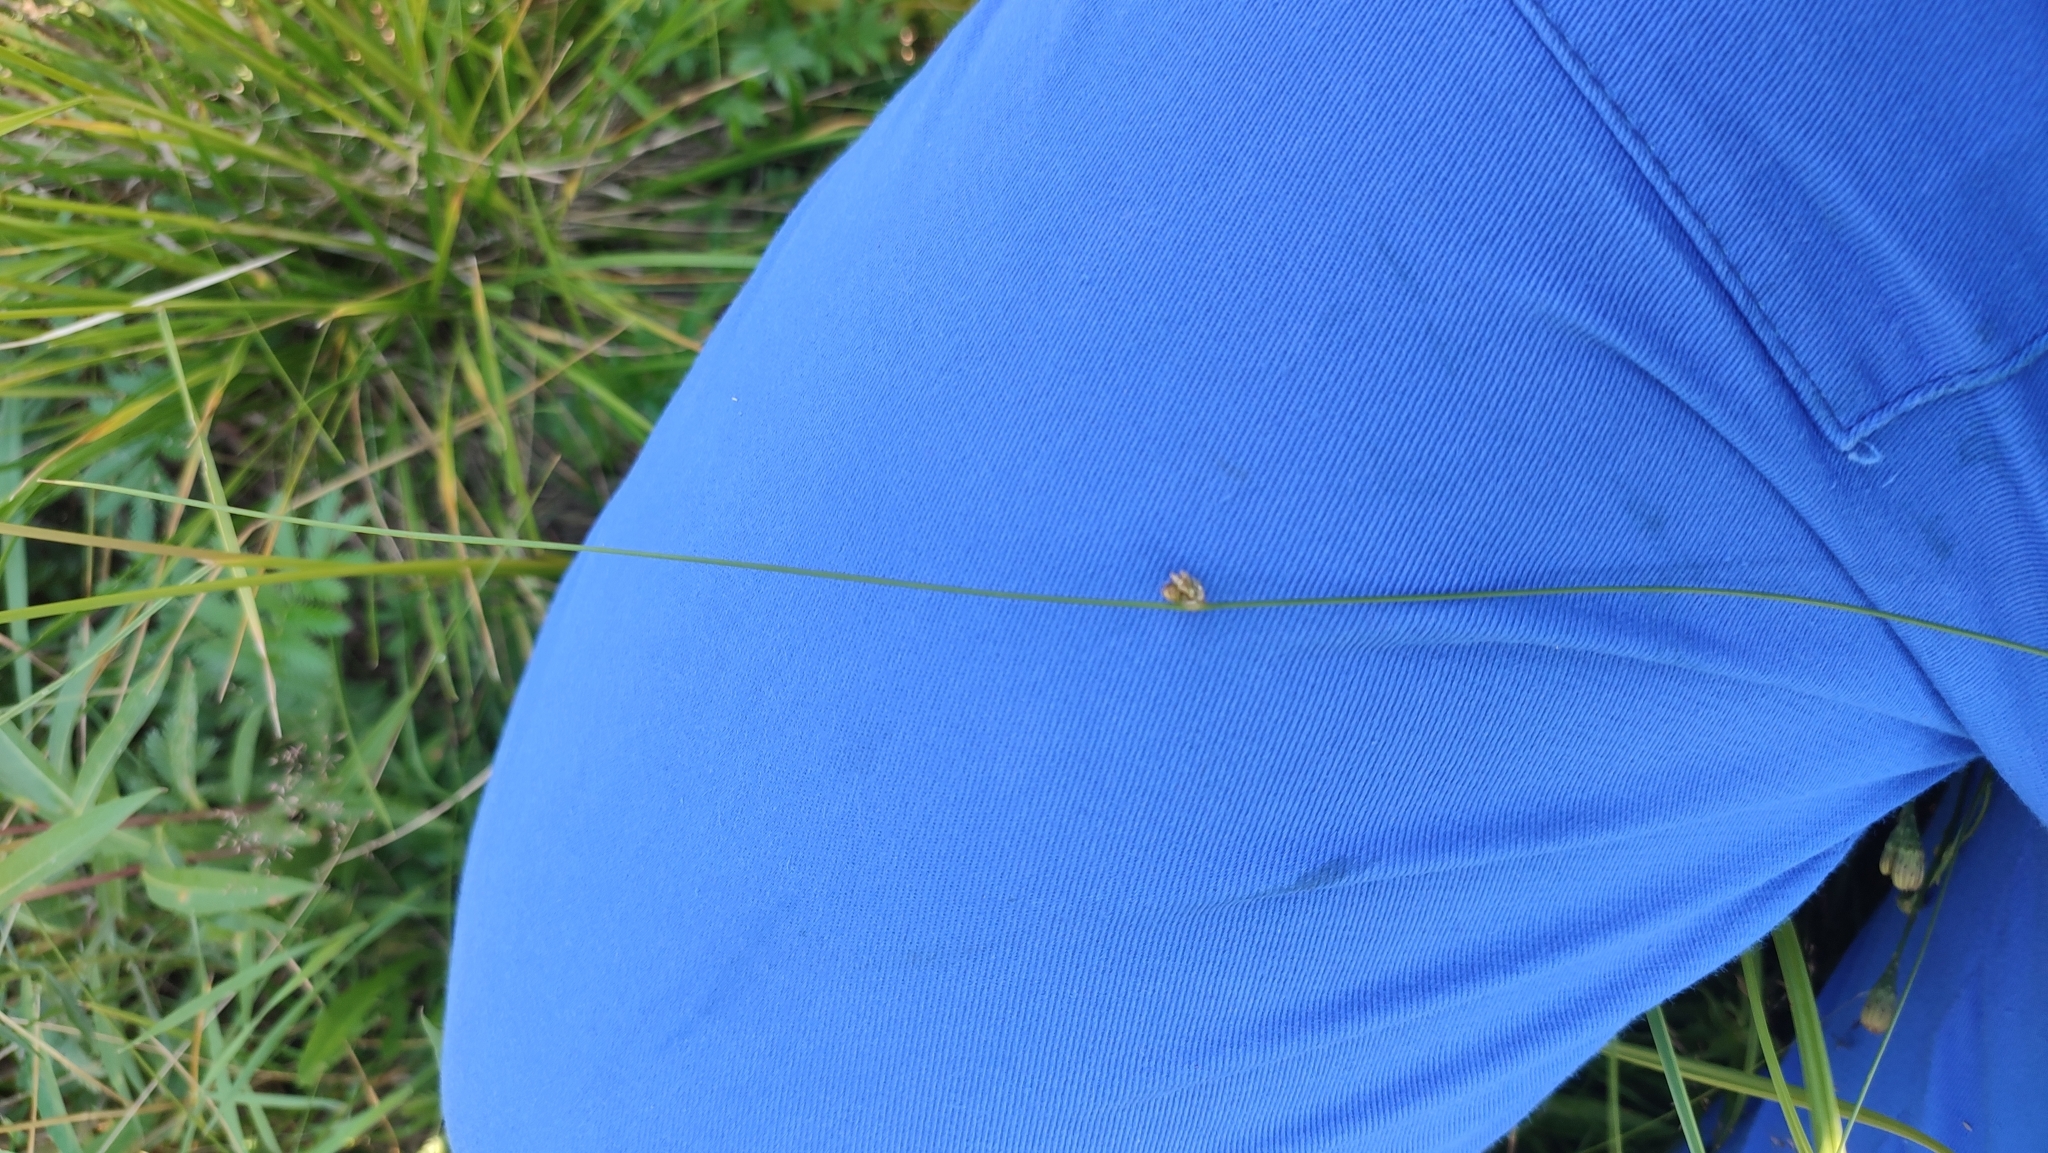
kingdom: Plantae
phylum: Tracheophyta
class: Liliopsida
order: Poales
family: Juncaceae
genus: Juncus
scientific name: Juncus filiformis
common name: Thread rush
